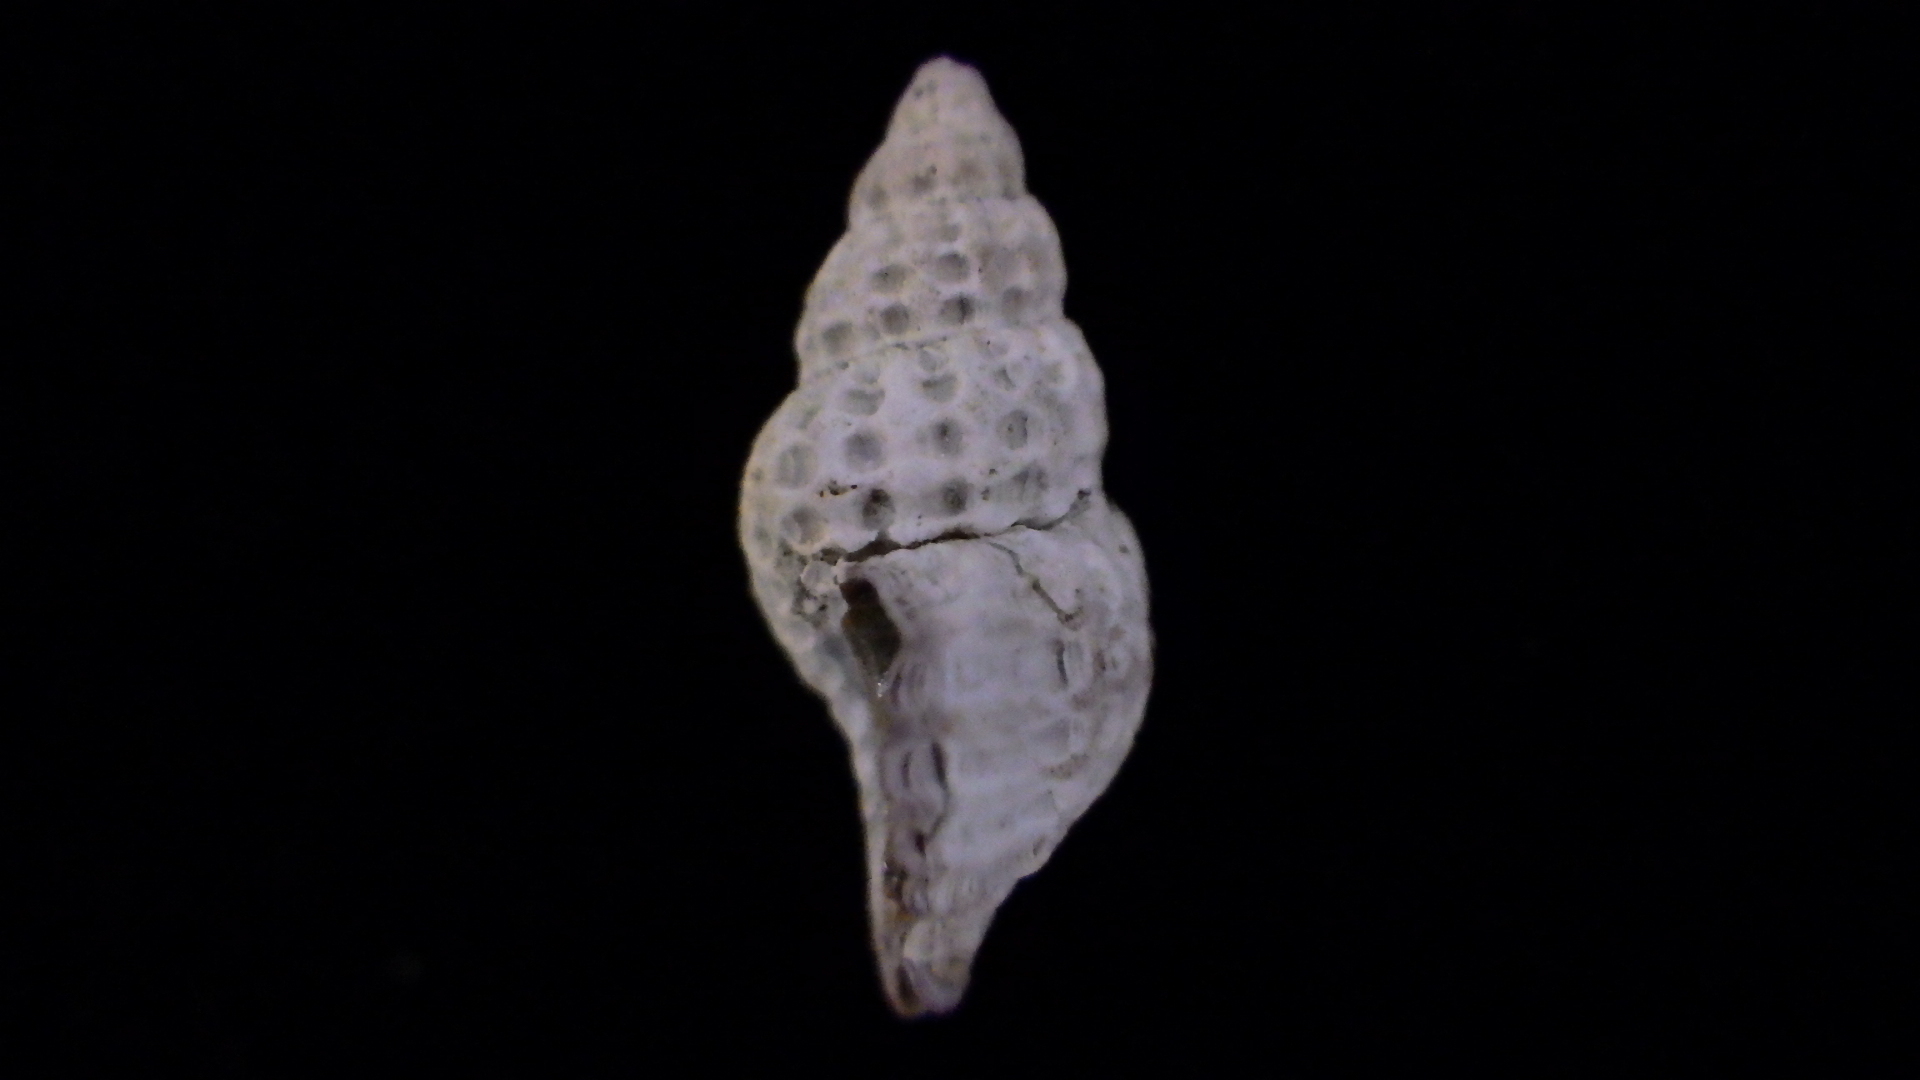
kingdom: Animalia
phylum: Mollusca
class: Gastropoda
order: Neogastropoda
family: Muricidae
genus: Xymenella
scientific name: Xymenella pusilla
